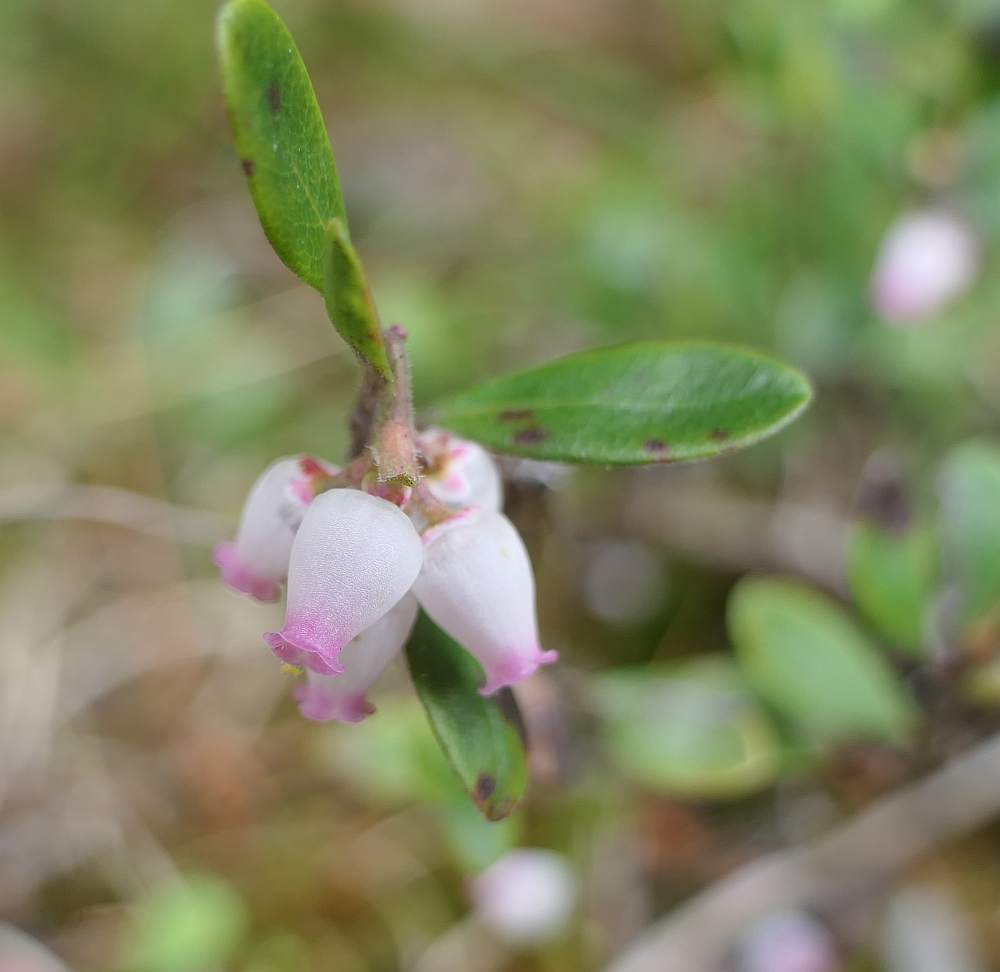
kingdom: Plantae
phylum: Tracheophyta
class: Magnoliopsida
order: Ericales
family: Ericaceae
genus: Arctostaphylos
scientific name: Arctostaphylos uva-ursi
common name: Bearberry
